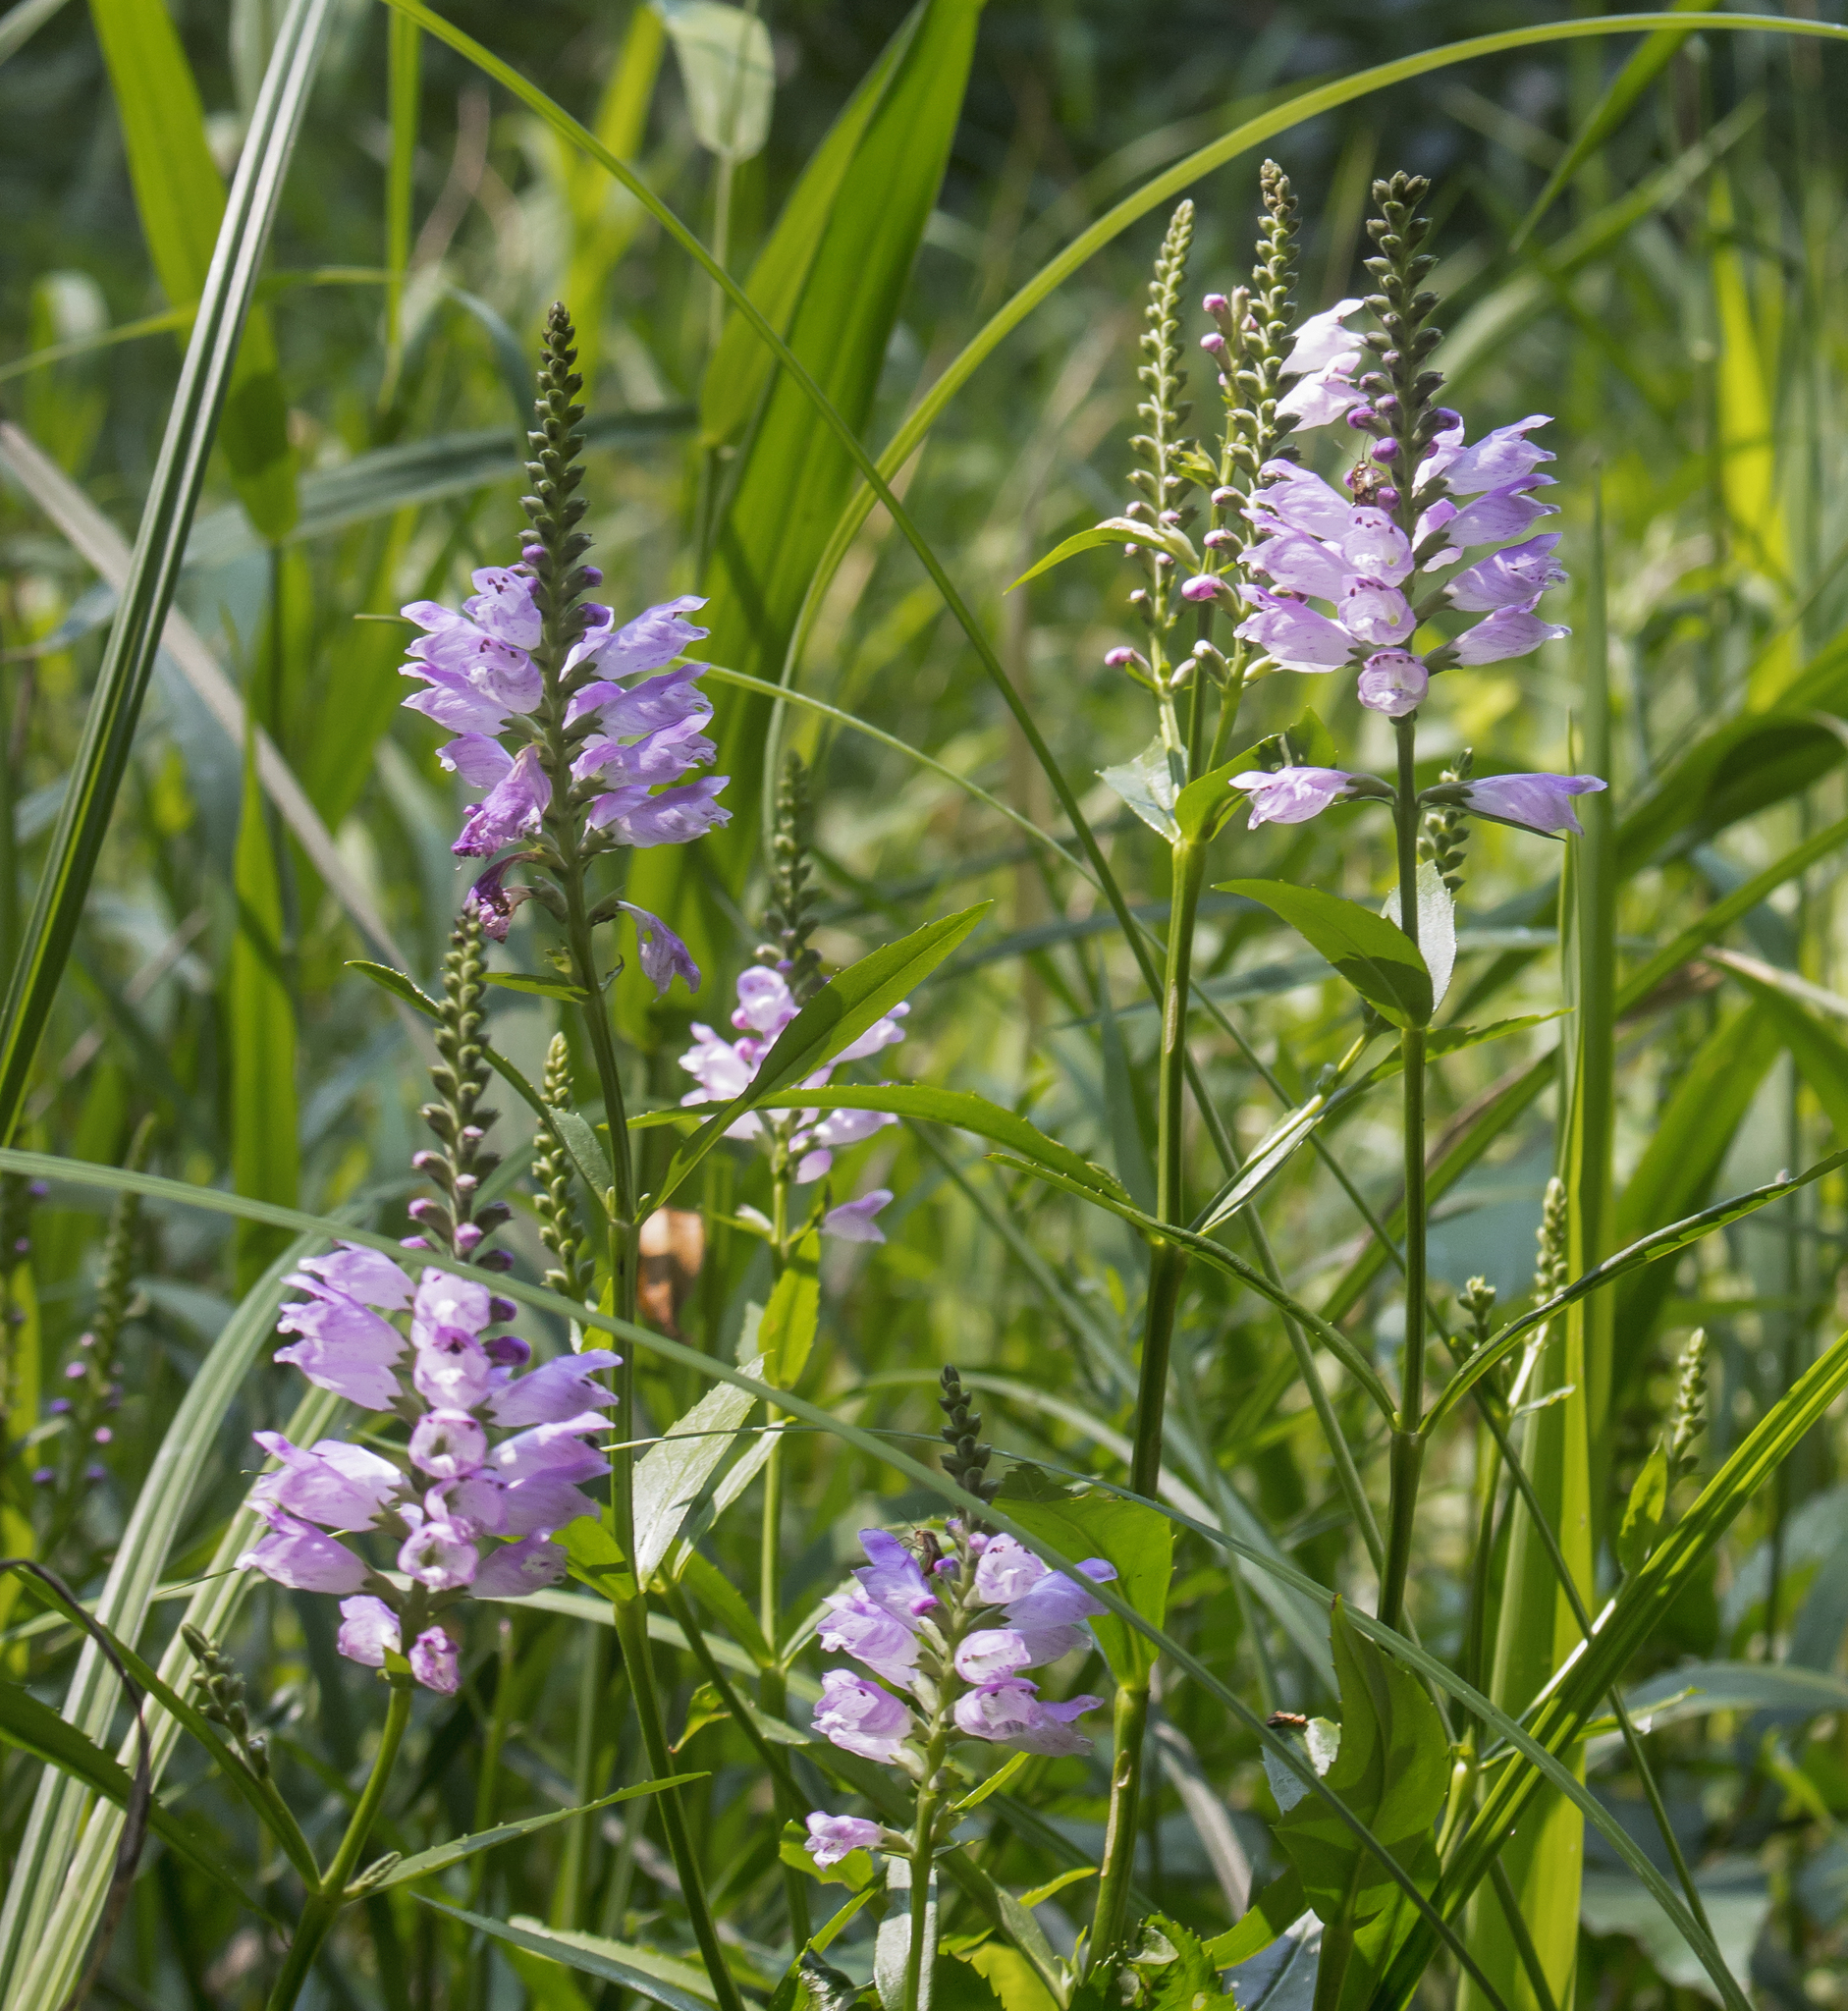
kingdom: Plantae
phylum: Tracheophyta
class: Magnoliopsida
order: Lamiales
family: Lamiaceae
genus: Physostegia
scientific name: Physostegia virginiana
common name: Obedient-plant
